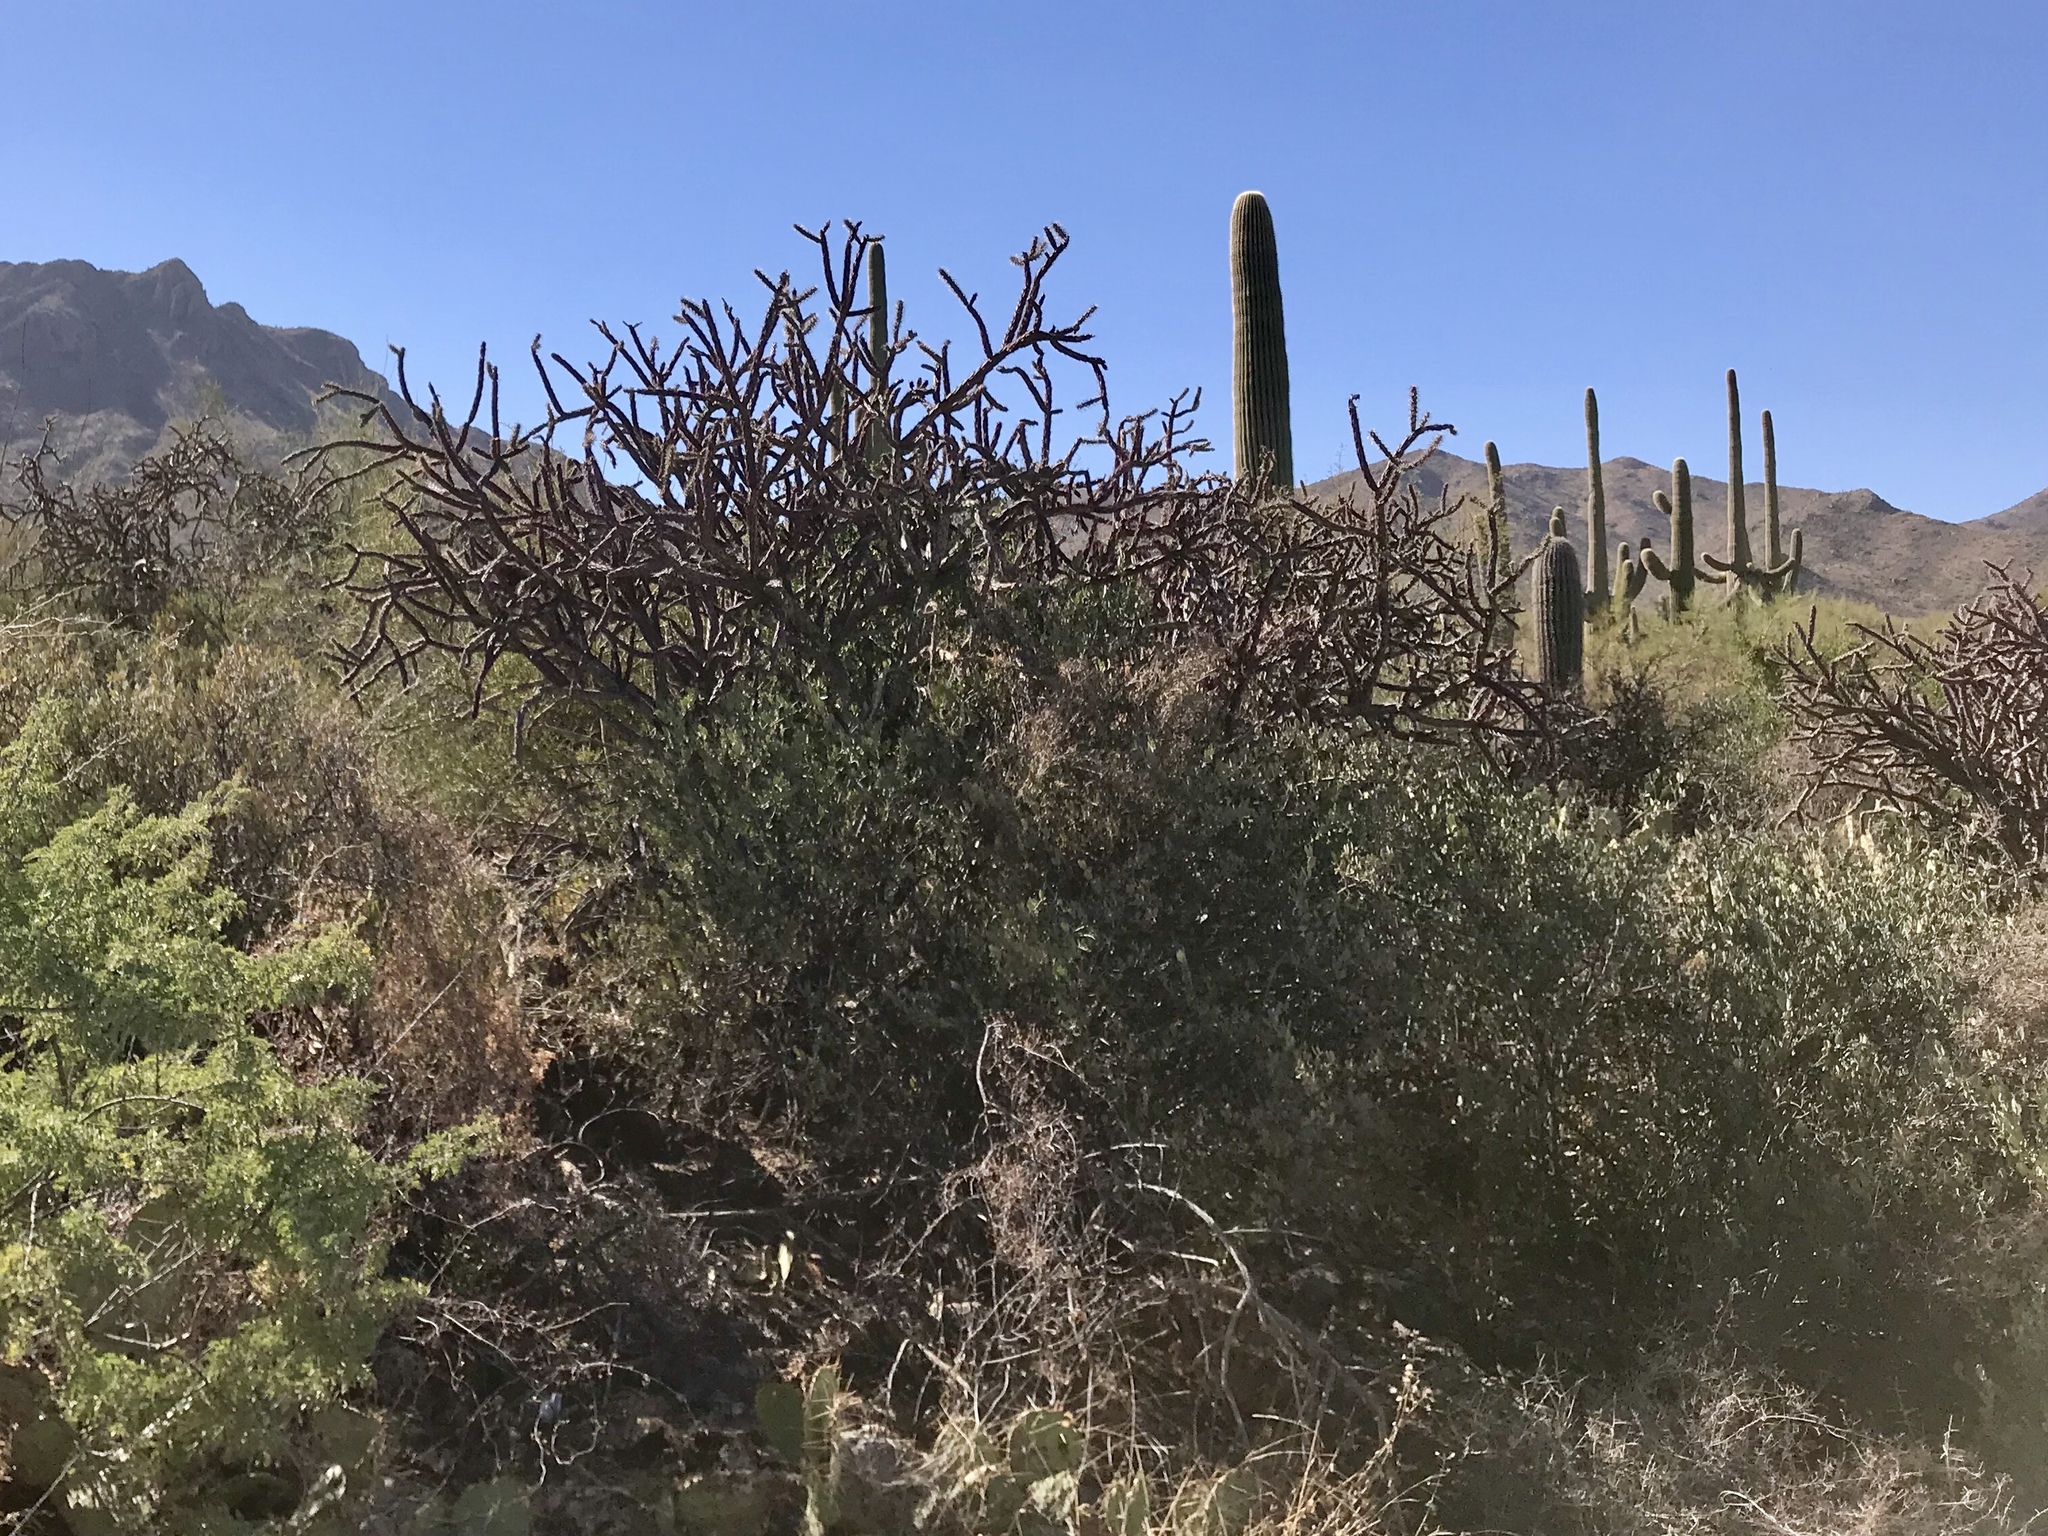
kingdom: Plantae
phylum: Tracheophyta
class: Magnoliopsida
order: Caryophyllales
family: Cactaceae
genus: Cylindropuntia
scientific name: Cylindropuntia thurberi
